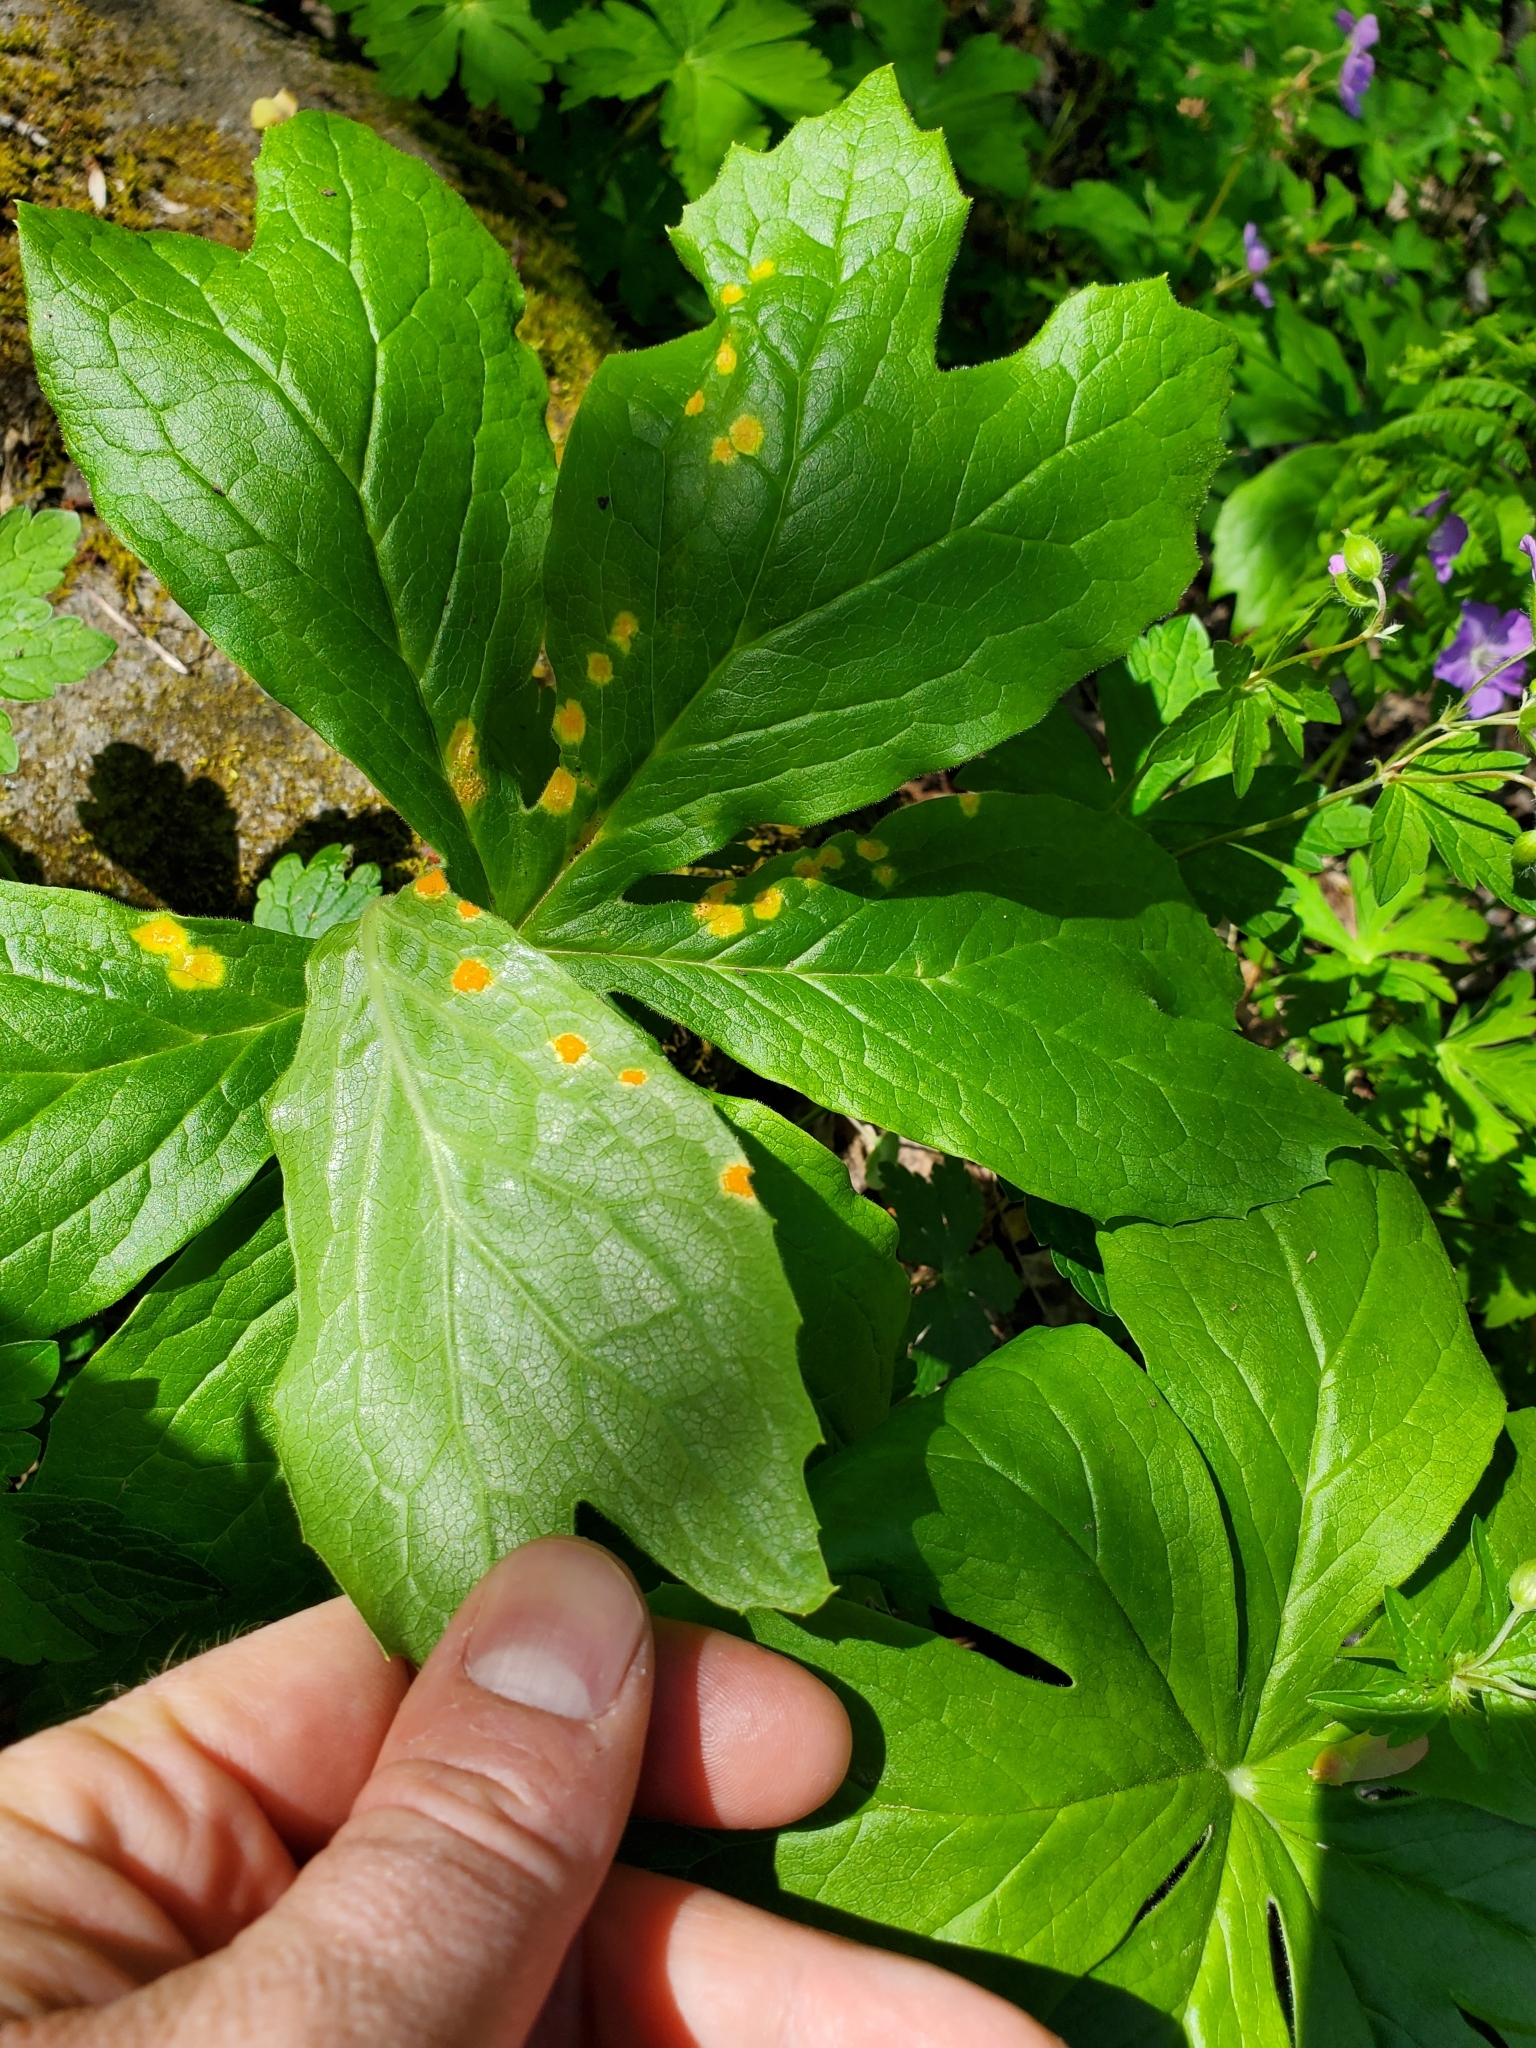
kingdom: Fungi
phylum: Basidiomycota
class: Pucciniomycetes
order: Pucciniales
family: Pucciniaceae
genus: Puccinia
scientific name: Puccinia podophylli
